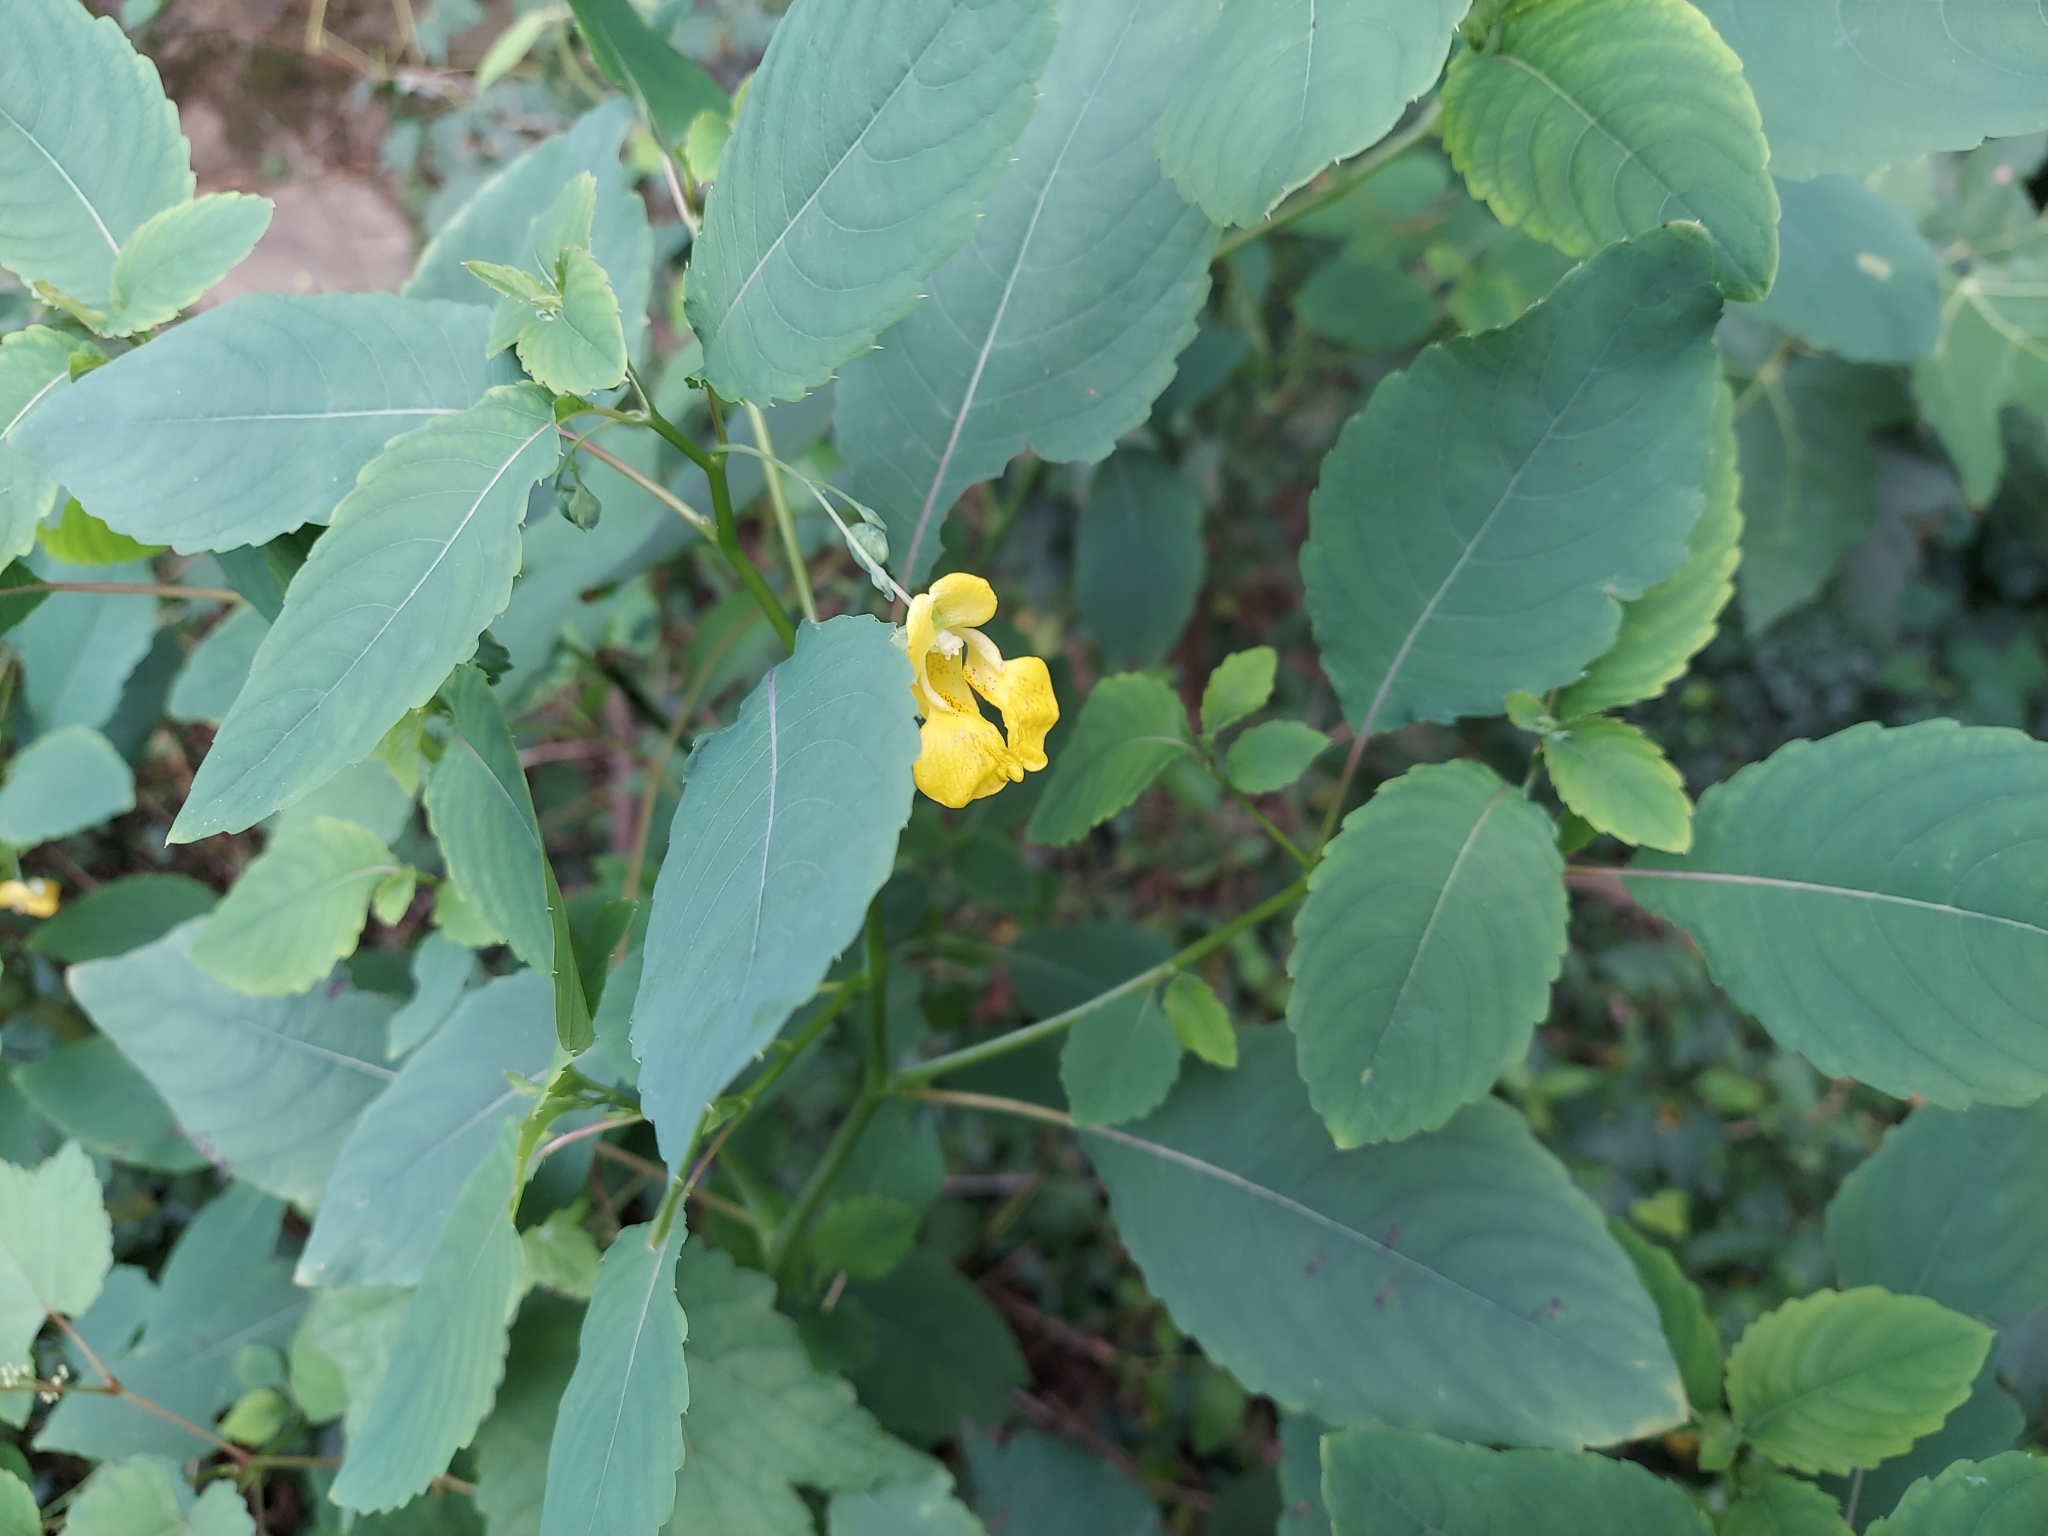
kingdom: Plantae
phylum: Tracheophyta
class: Magnoliopsida
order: Ericales
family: Balsaminaceae
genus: Impatiens
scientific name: Impatiens pallida
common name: Pale snapweed
